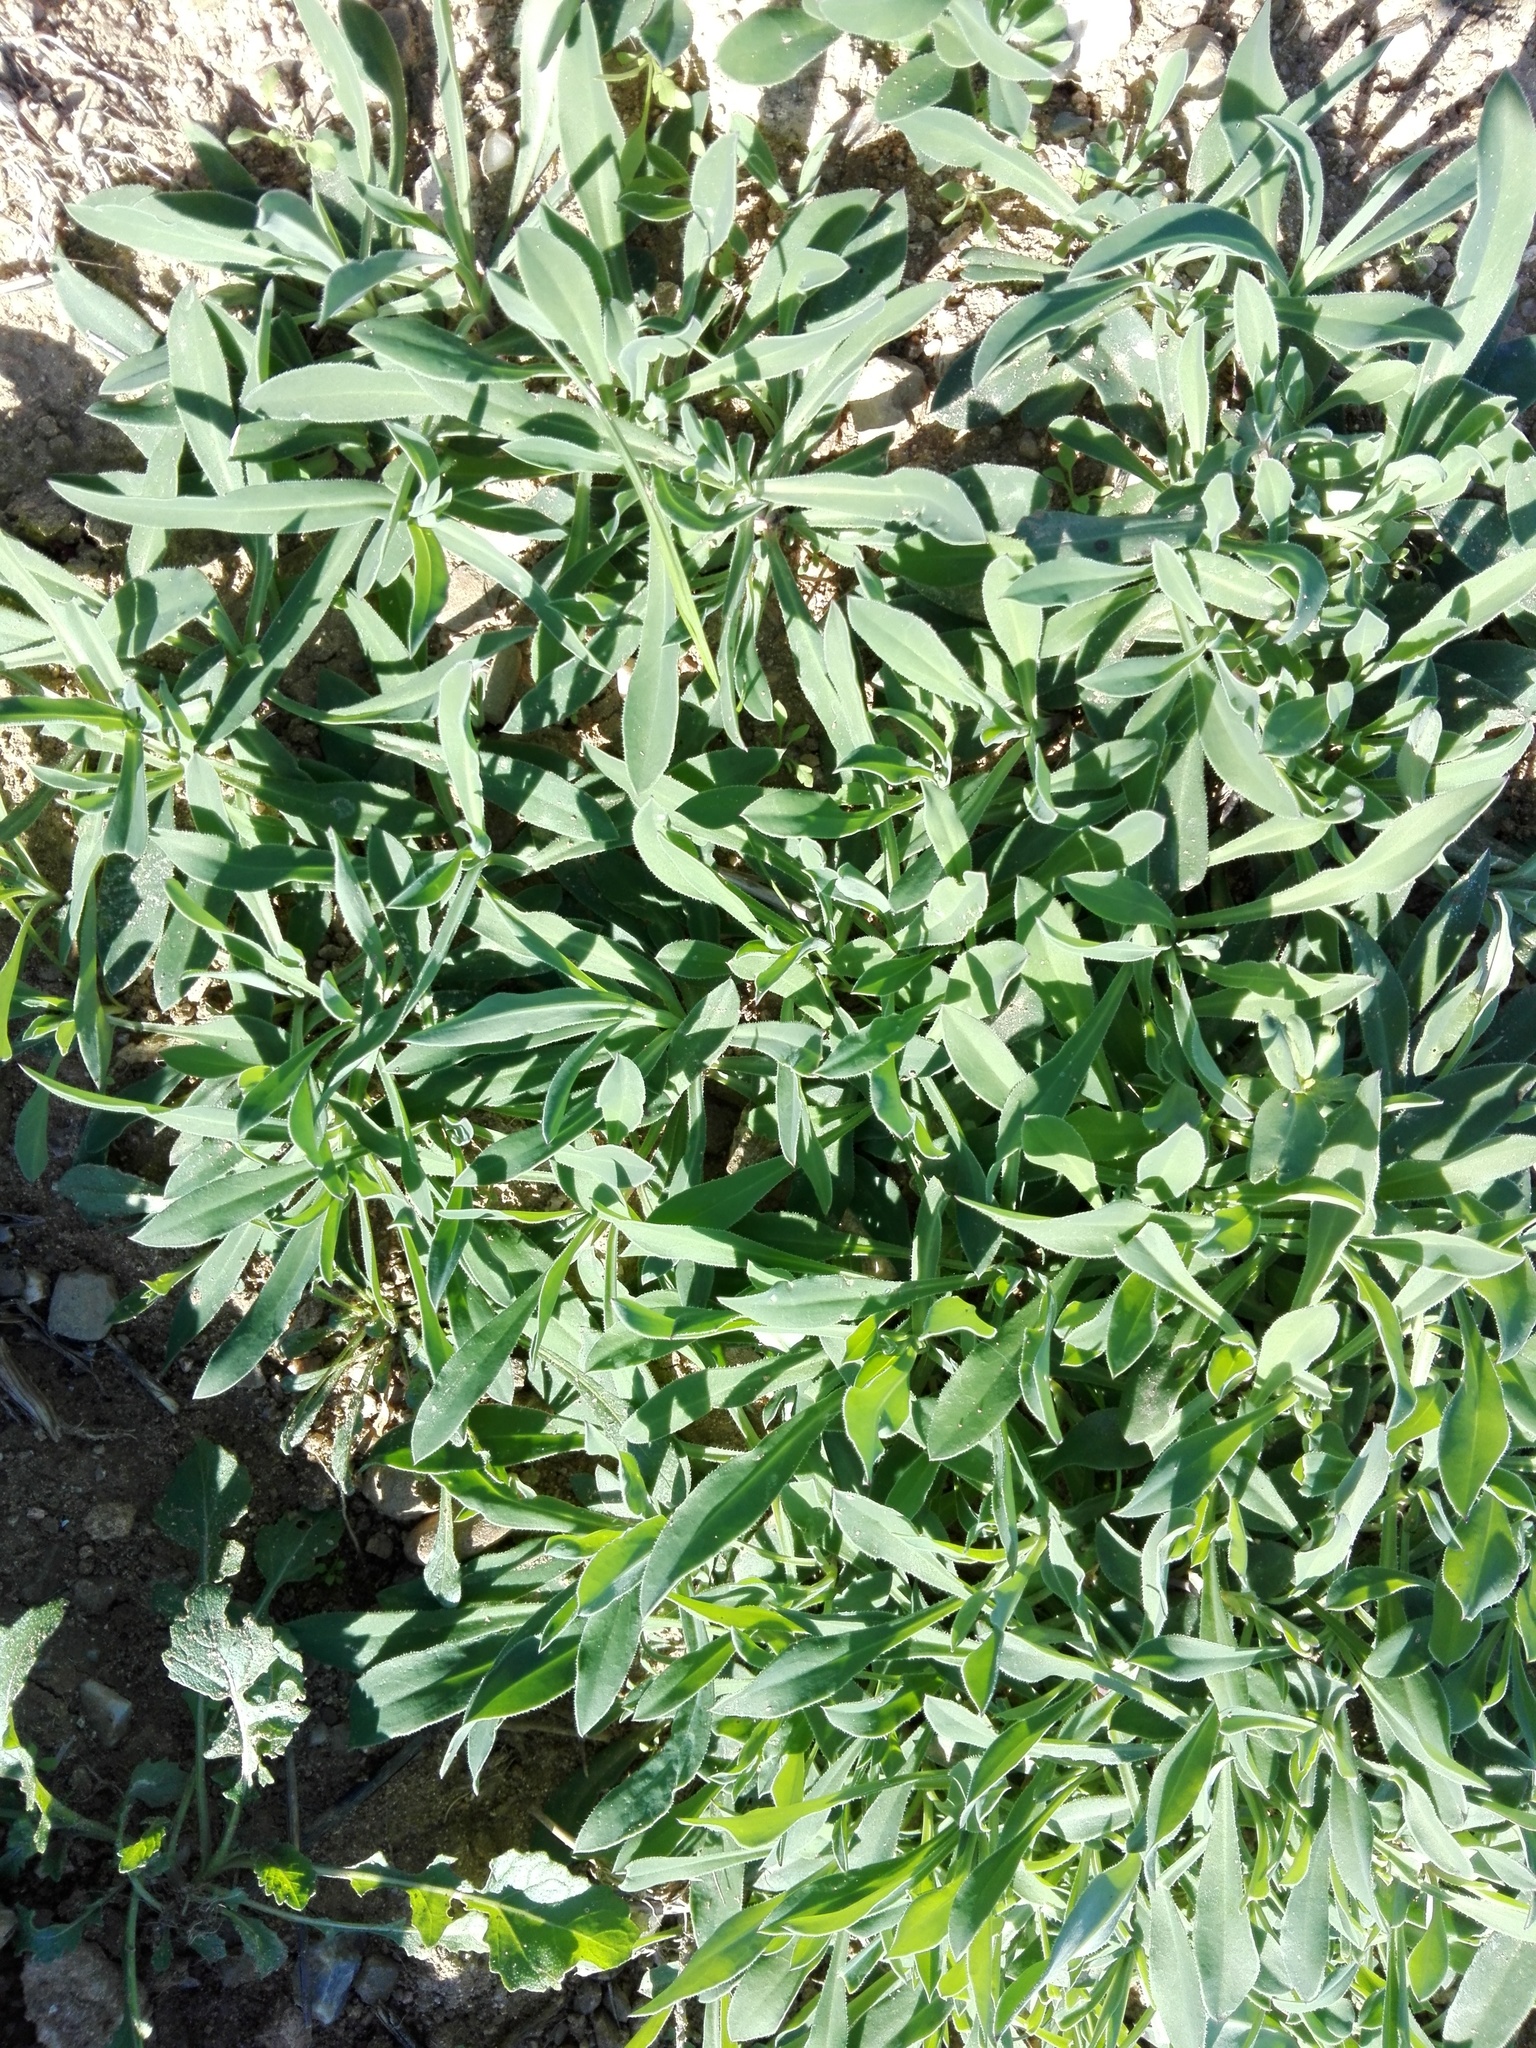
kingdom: Plantae
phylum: Tracheophyta
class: Magnoliopsida
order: Caryophyllales
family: Caryophyllaceae
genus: Silene
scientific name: Silene vulgaris
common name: Bladder campion
